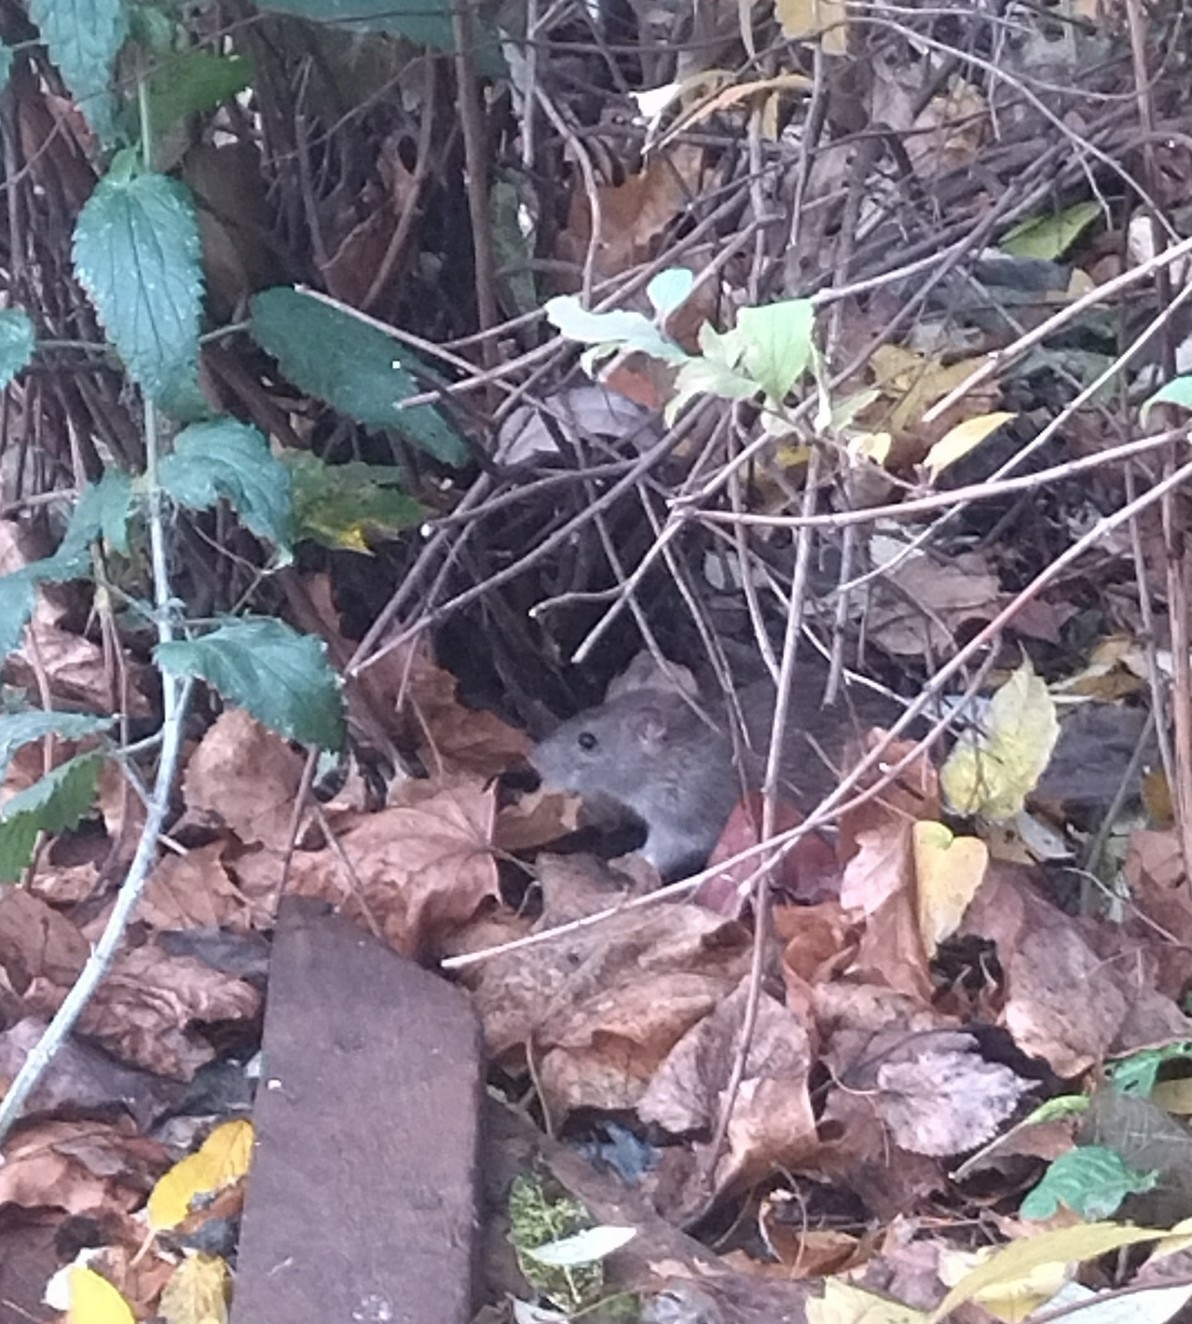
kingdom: Animalia
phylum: Chordata
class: Mammalia
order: Rodentia
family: Muridae
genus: Rattus
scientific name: Rattus norvegicus
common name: Brown rat
